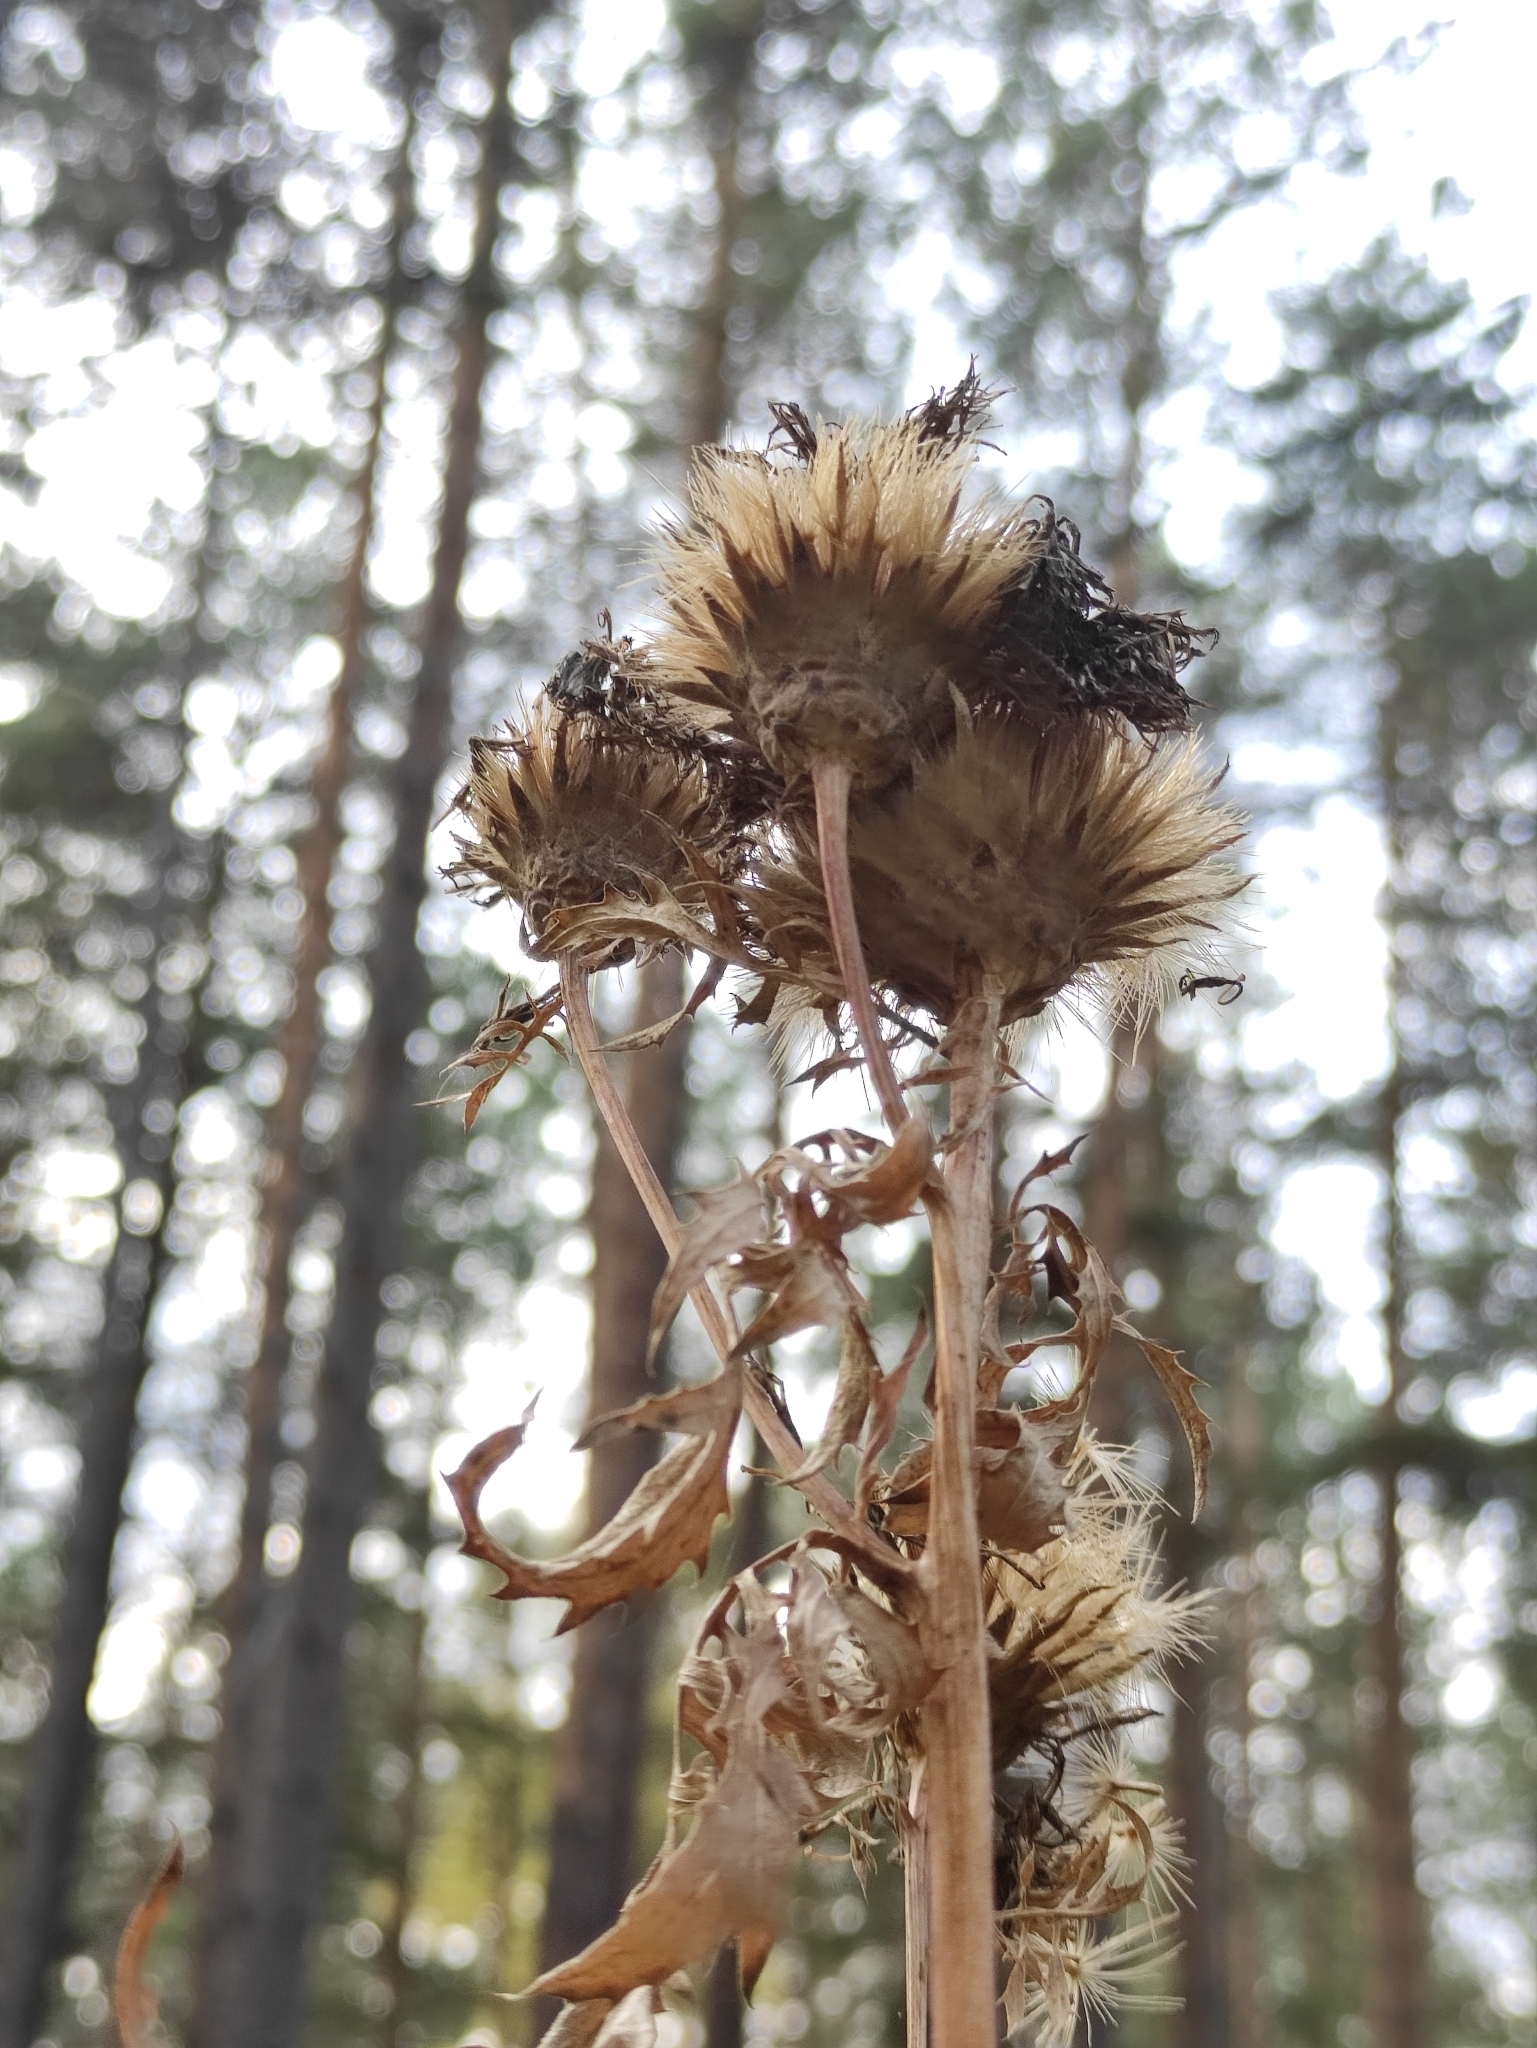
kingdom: Plantae
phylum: Tracheophyta
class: Magnoliopsida
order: Asterales
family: Asteraceae
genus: Serratula
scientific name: Serratula coronata
